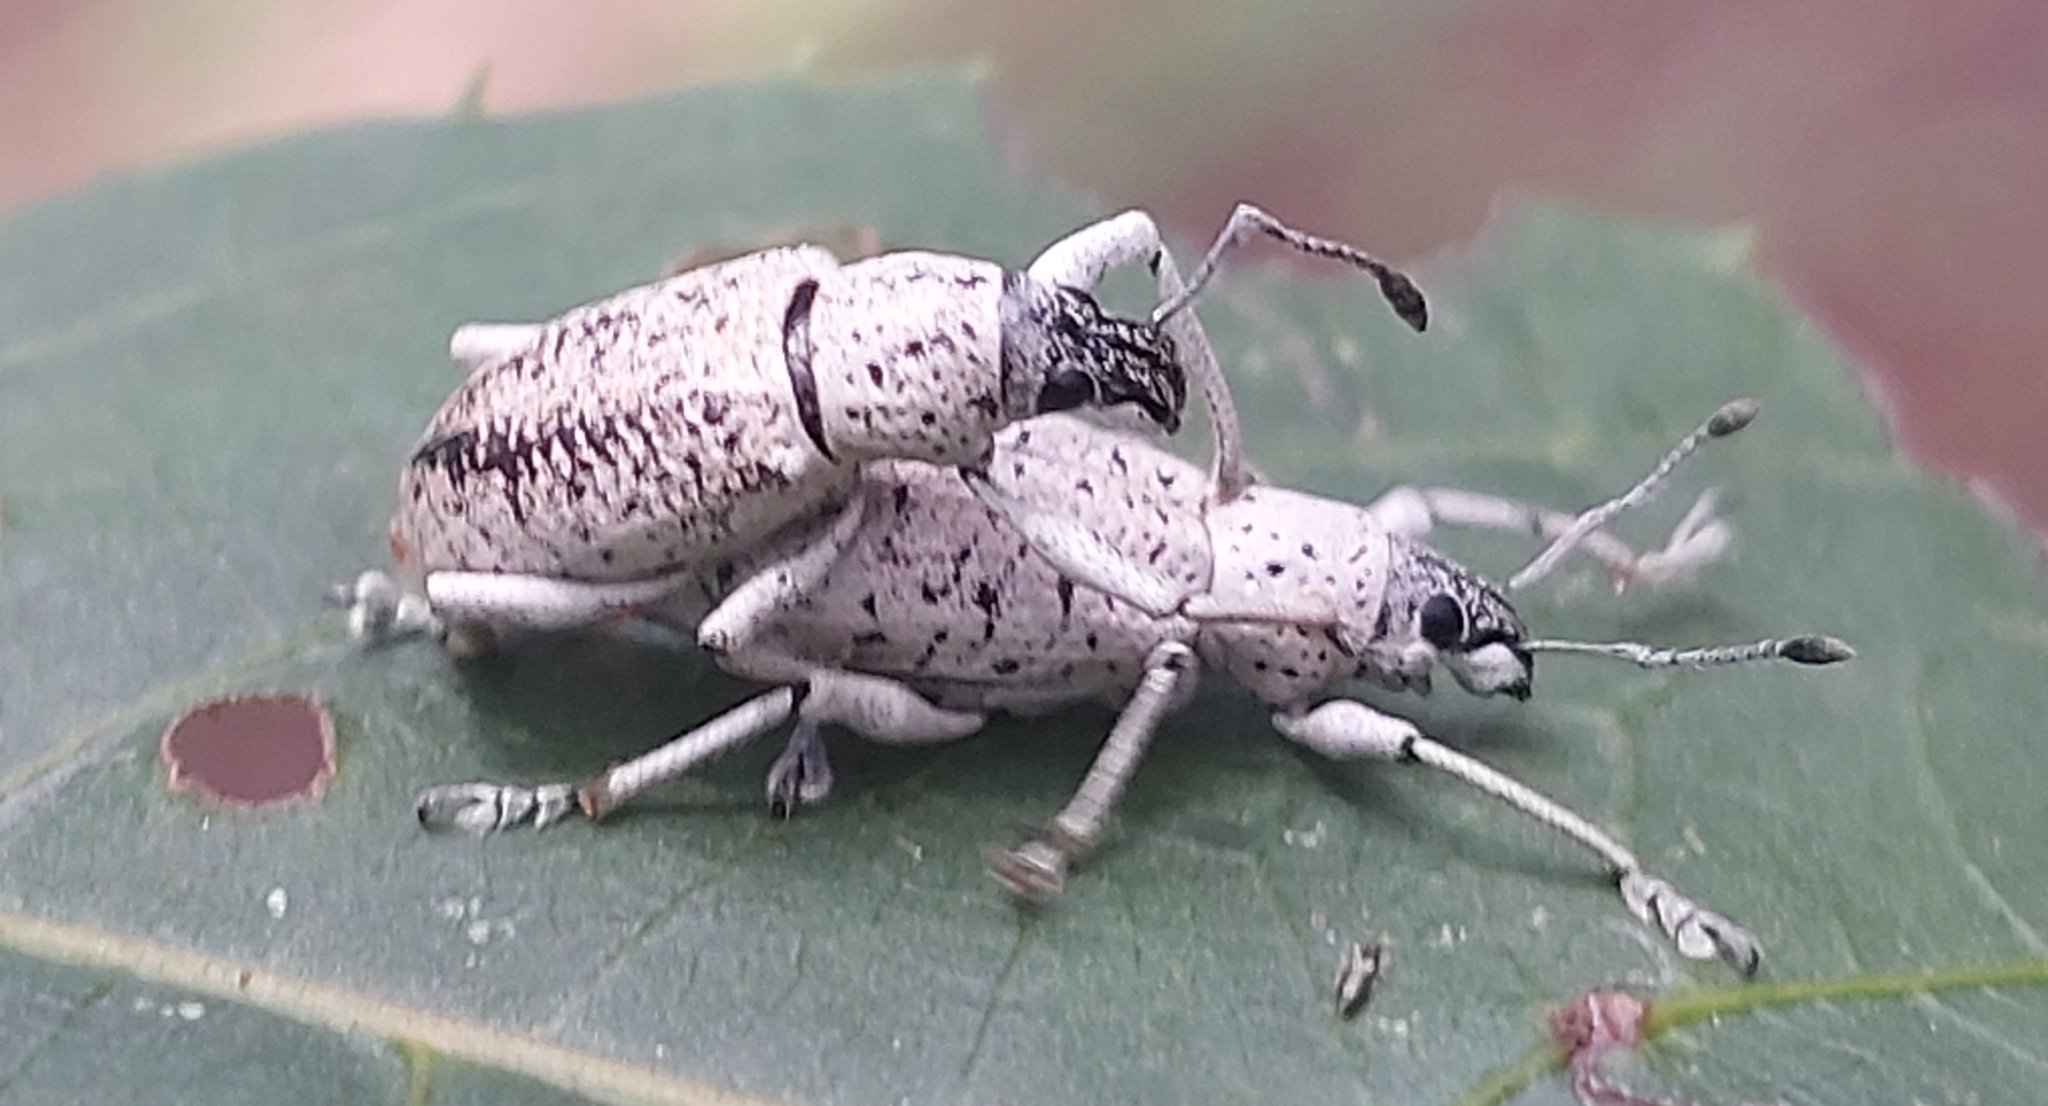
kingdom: Animalia
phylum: Arthropoda
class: Insecta
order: Coleoptera
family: Curculionidae
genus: Exophthalmus
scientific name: Exophthalmus scalptus
